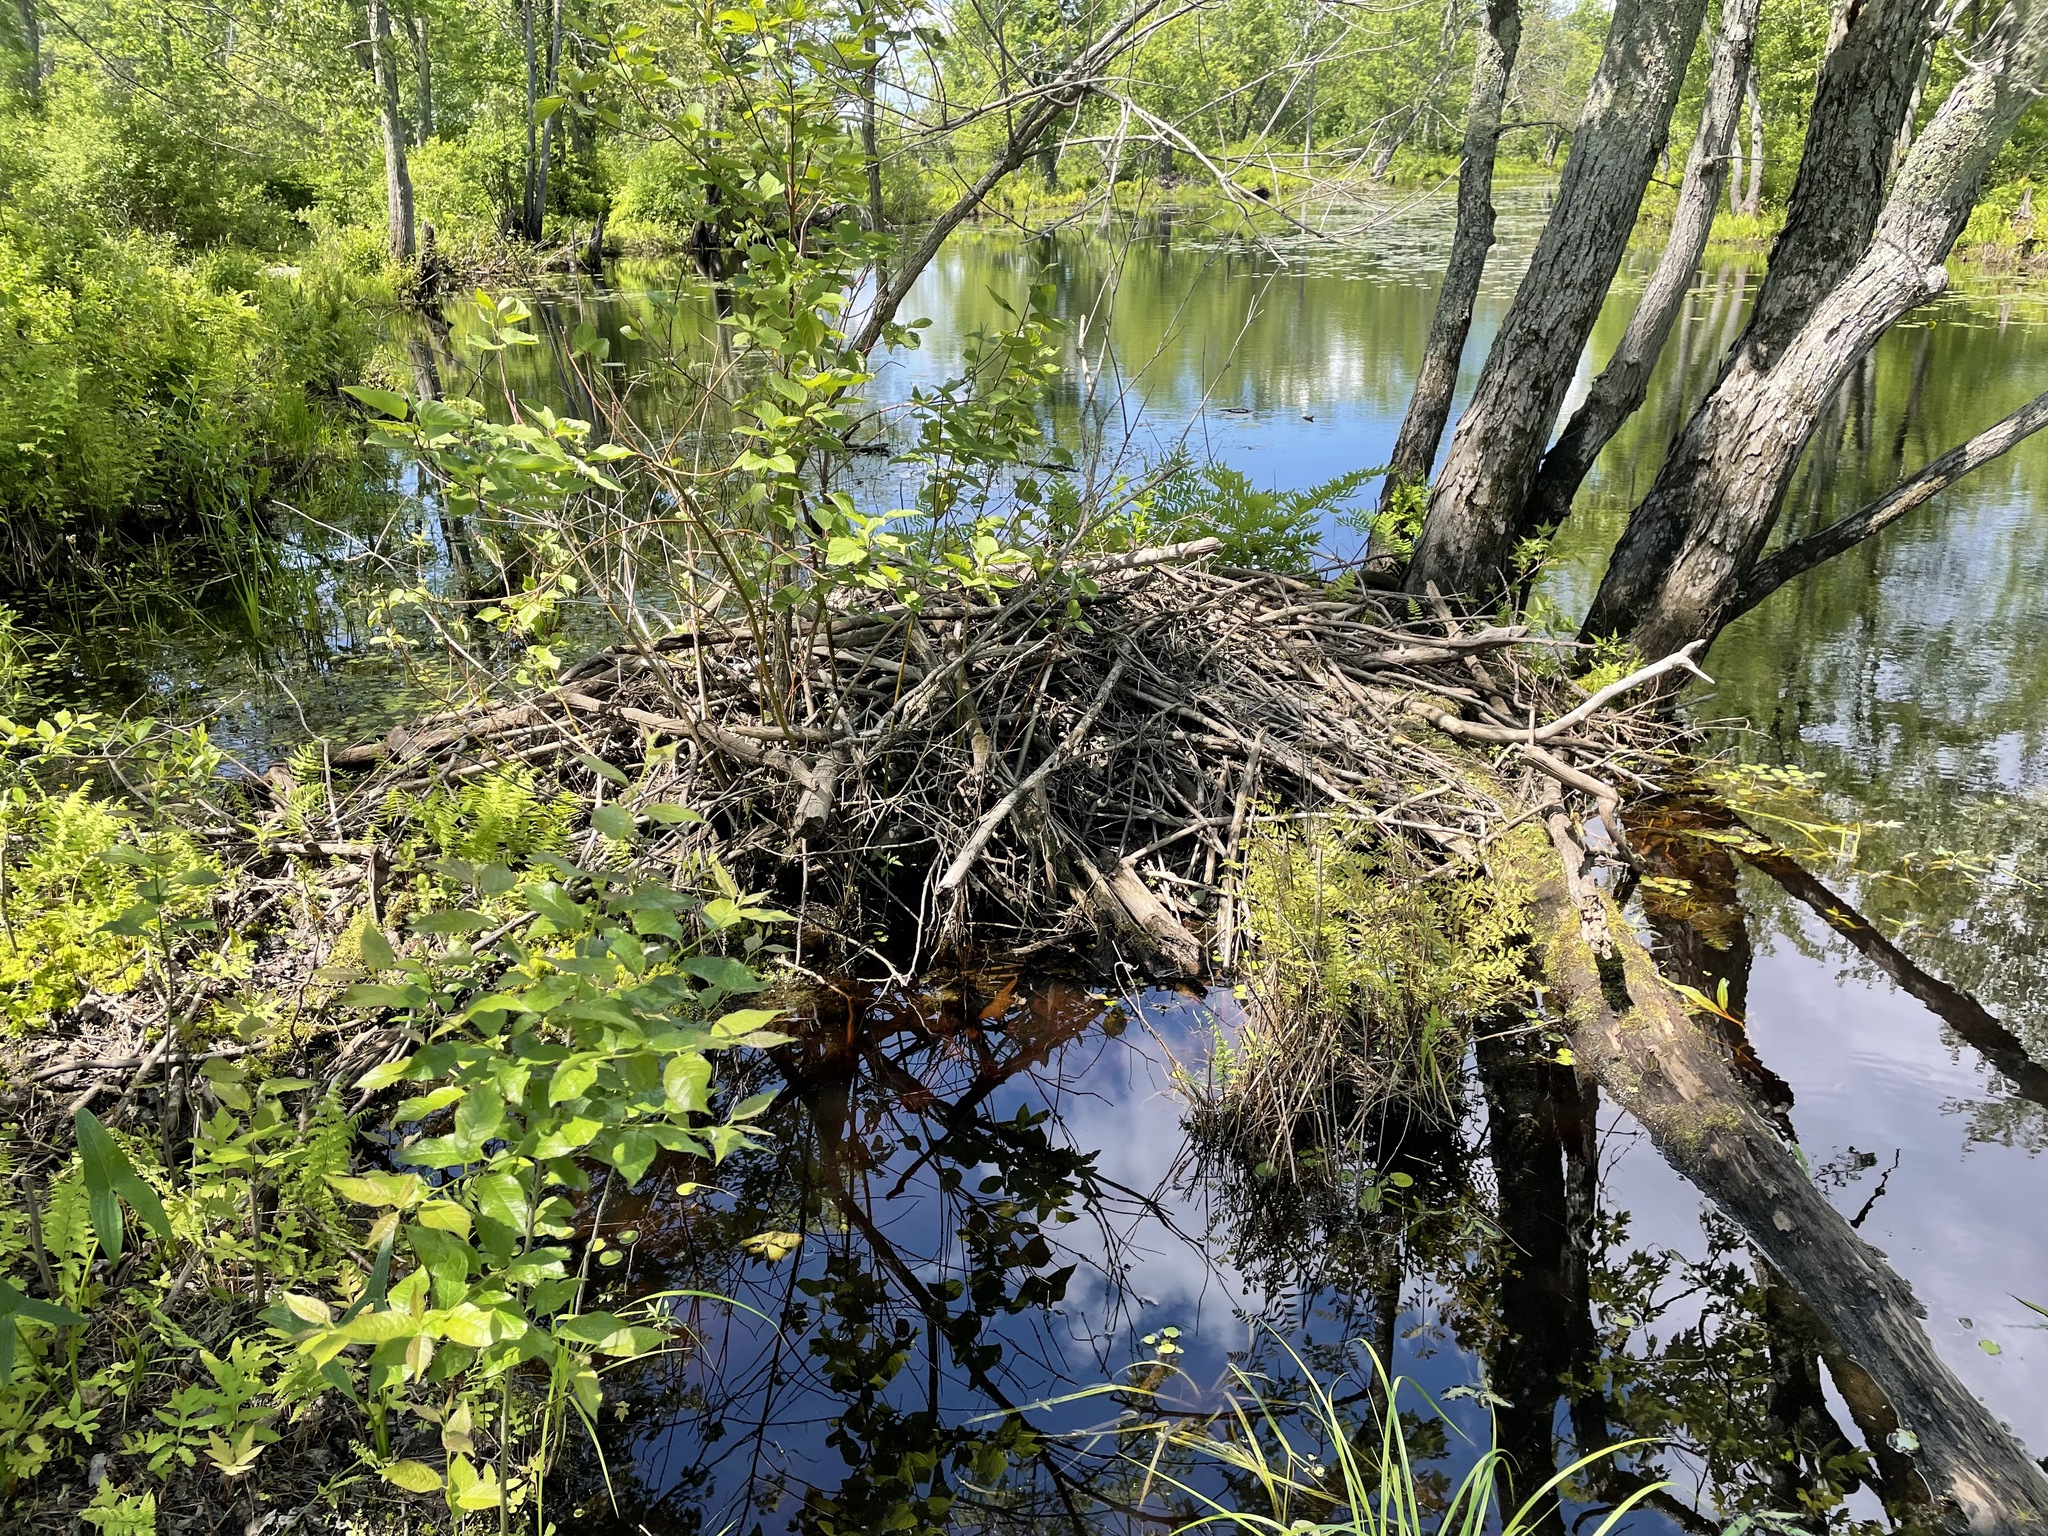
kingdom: Animalia
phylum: Chordata
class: Mammalia
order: Rodentia
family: Castoridae
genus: Castor
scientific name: Castor canadensis
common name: American beaver
